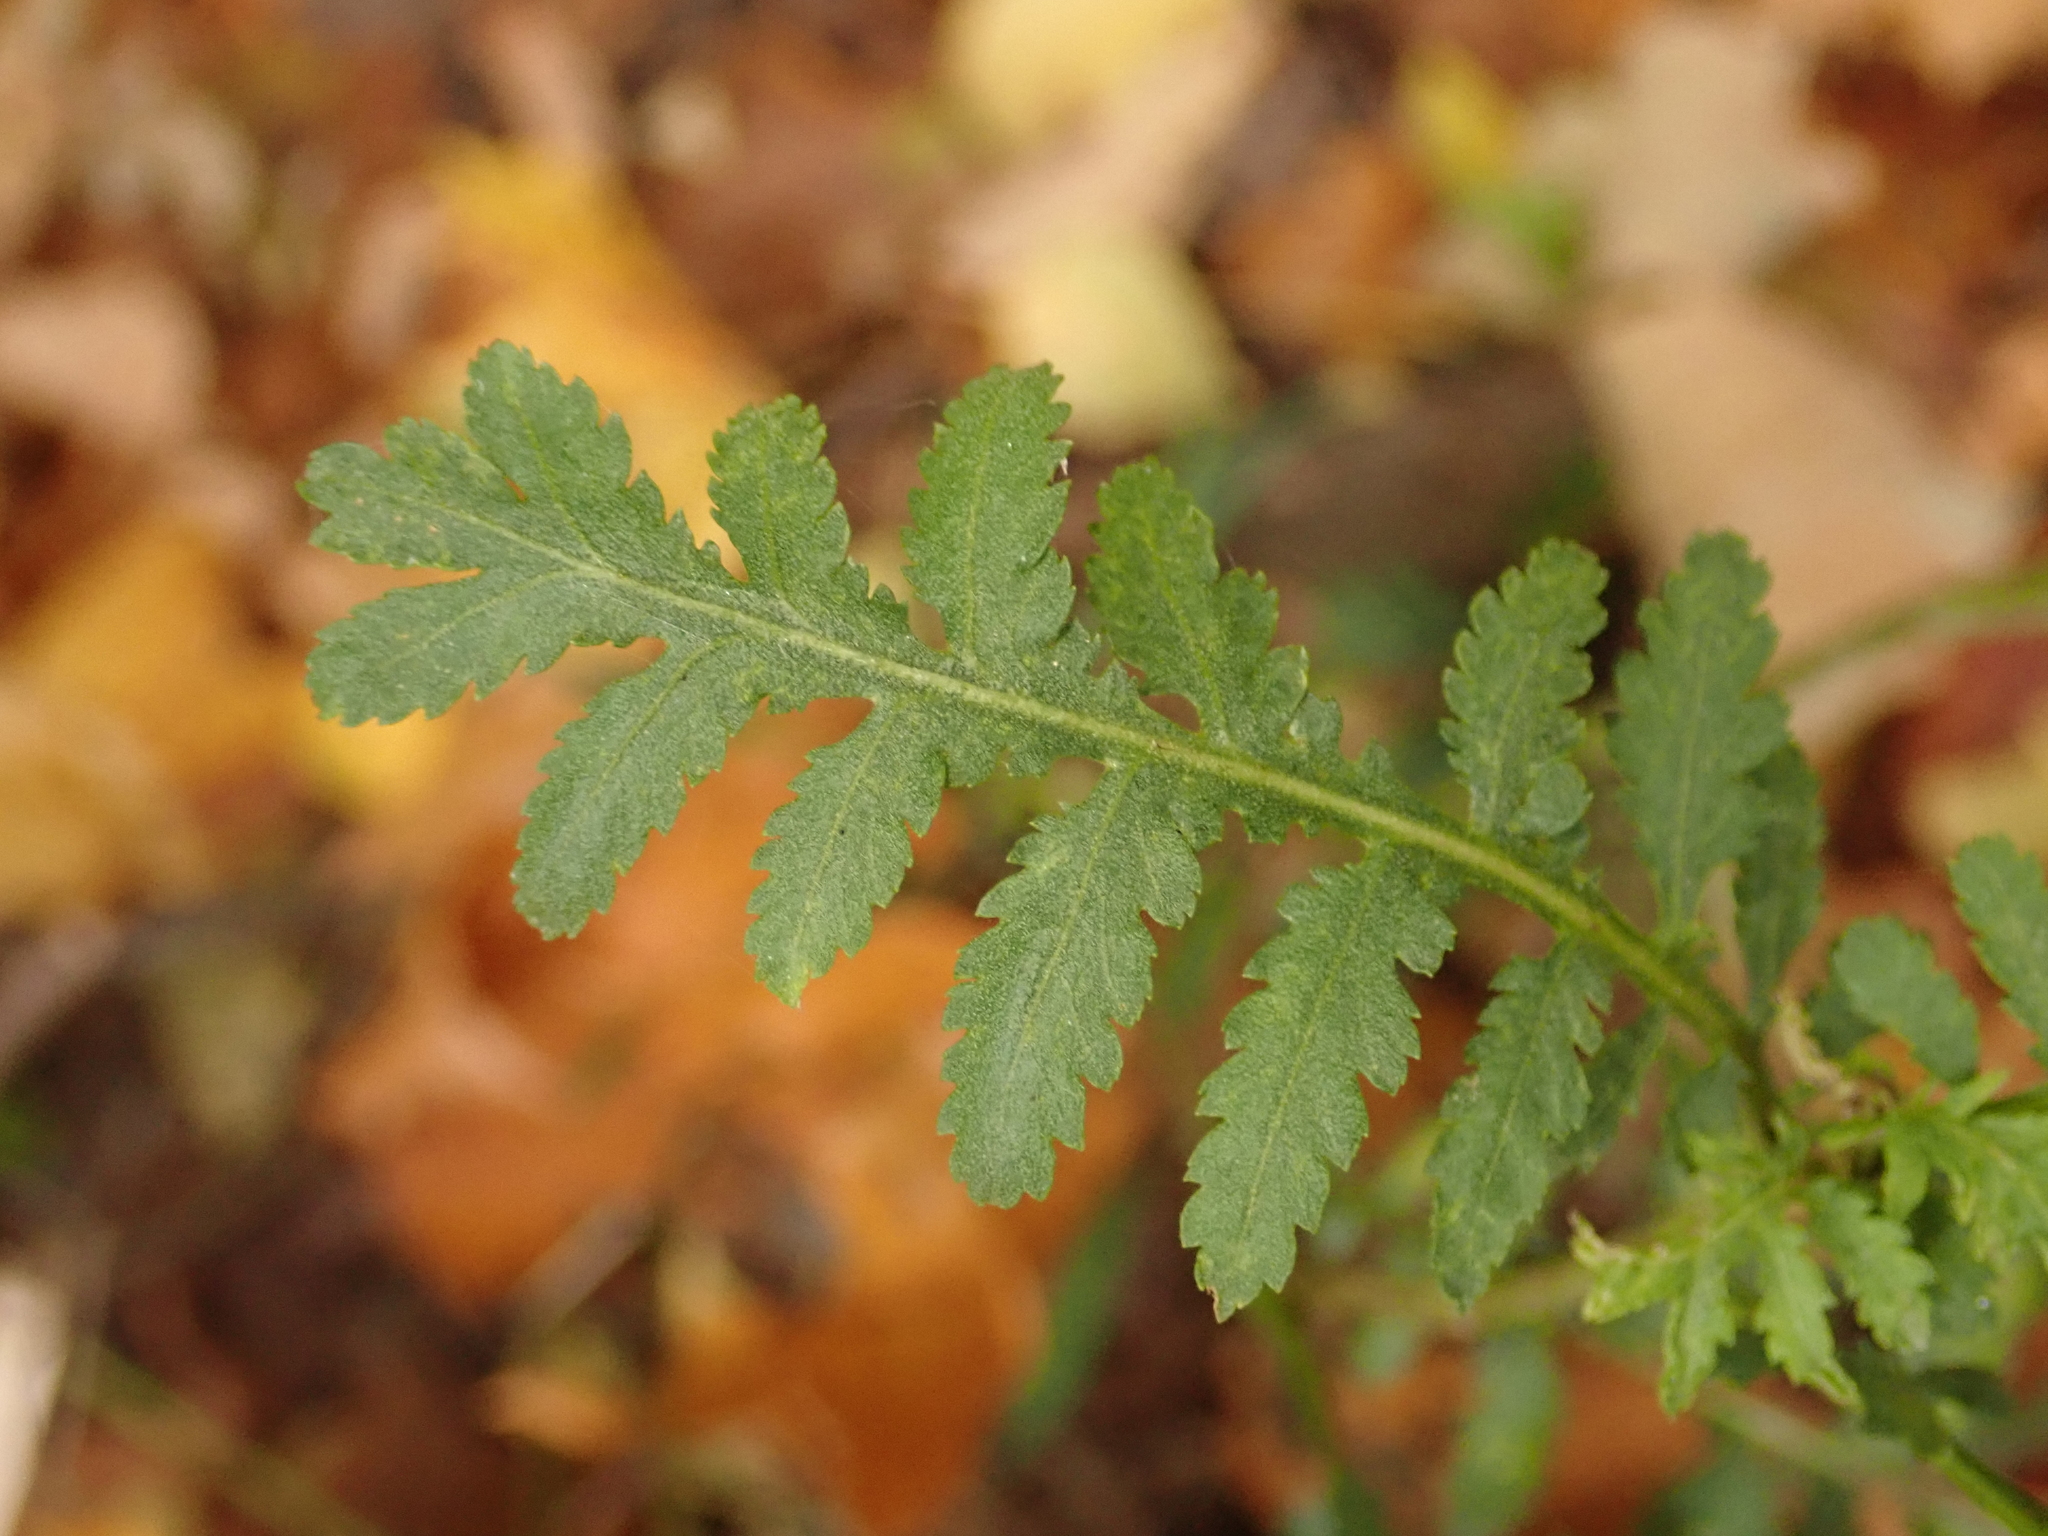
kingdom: Plantae
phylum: Tracheophyta
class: Magnoliopsida
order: Asterales
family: Asteraceae
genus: Tanacetum
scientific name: Tanacetum vulgare
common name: Common tansy
